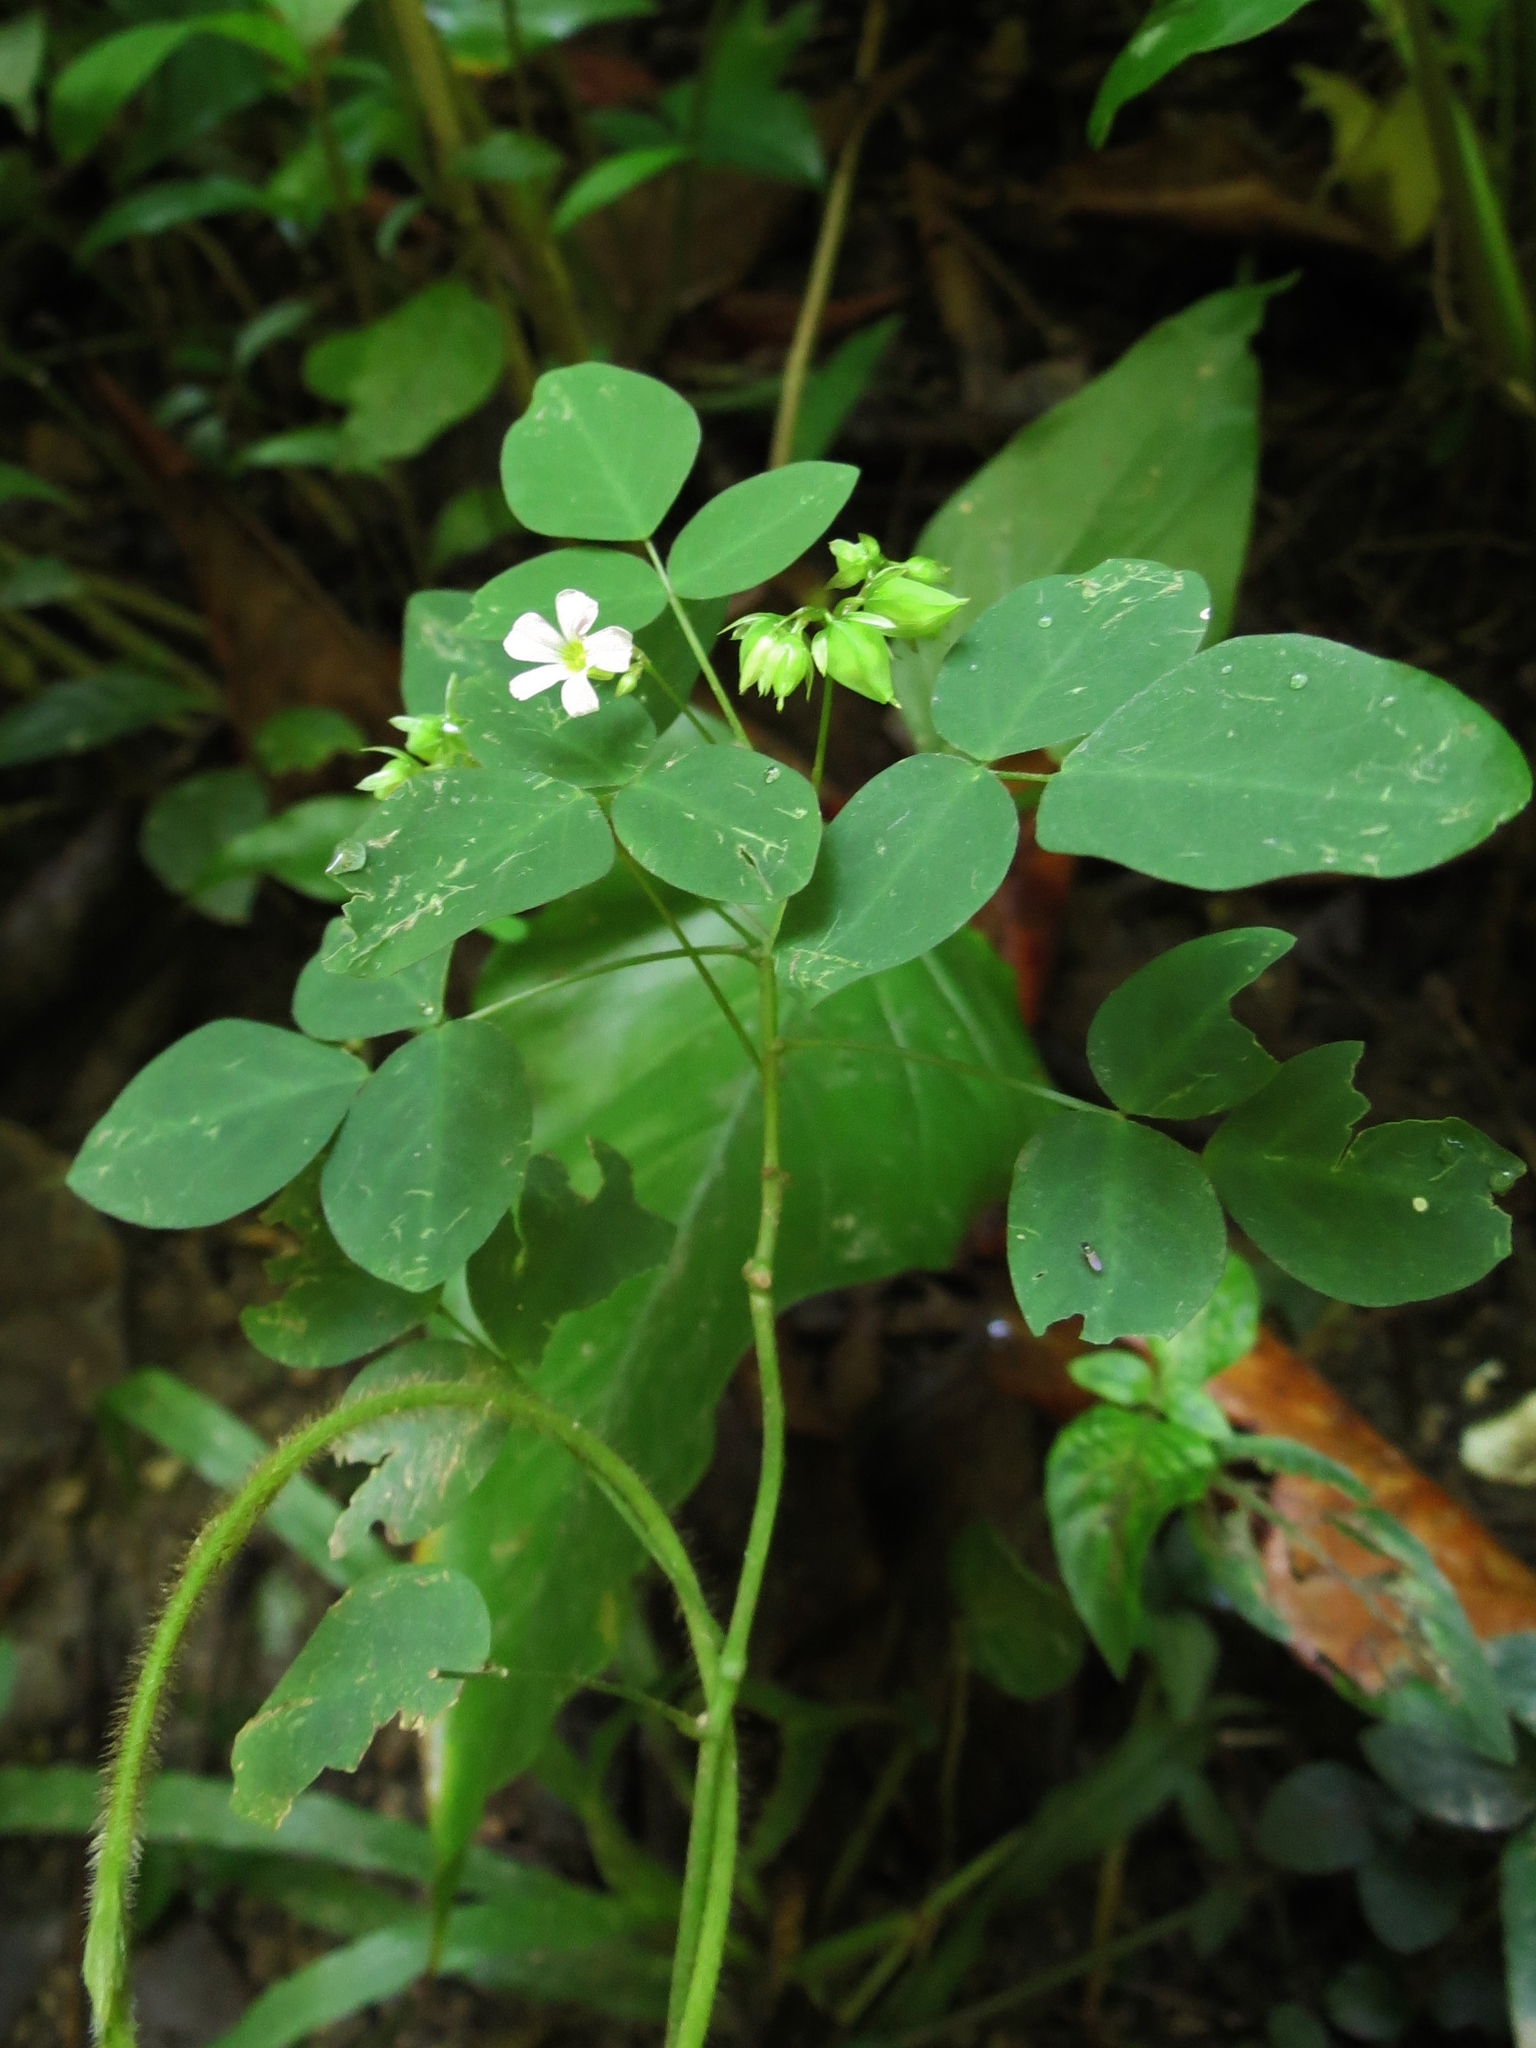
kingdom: Plantae
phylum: Tracheophyta
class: Magnoliopsida
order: Oxalidales
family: Oxalidaceae
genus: Oxalis
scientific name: Oxalis barrelieri
